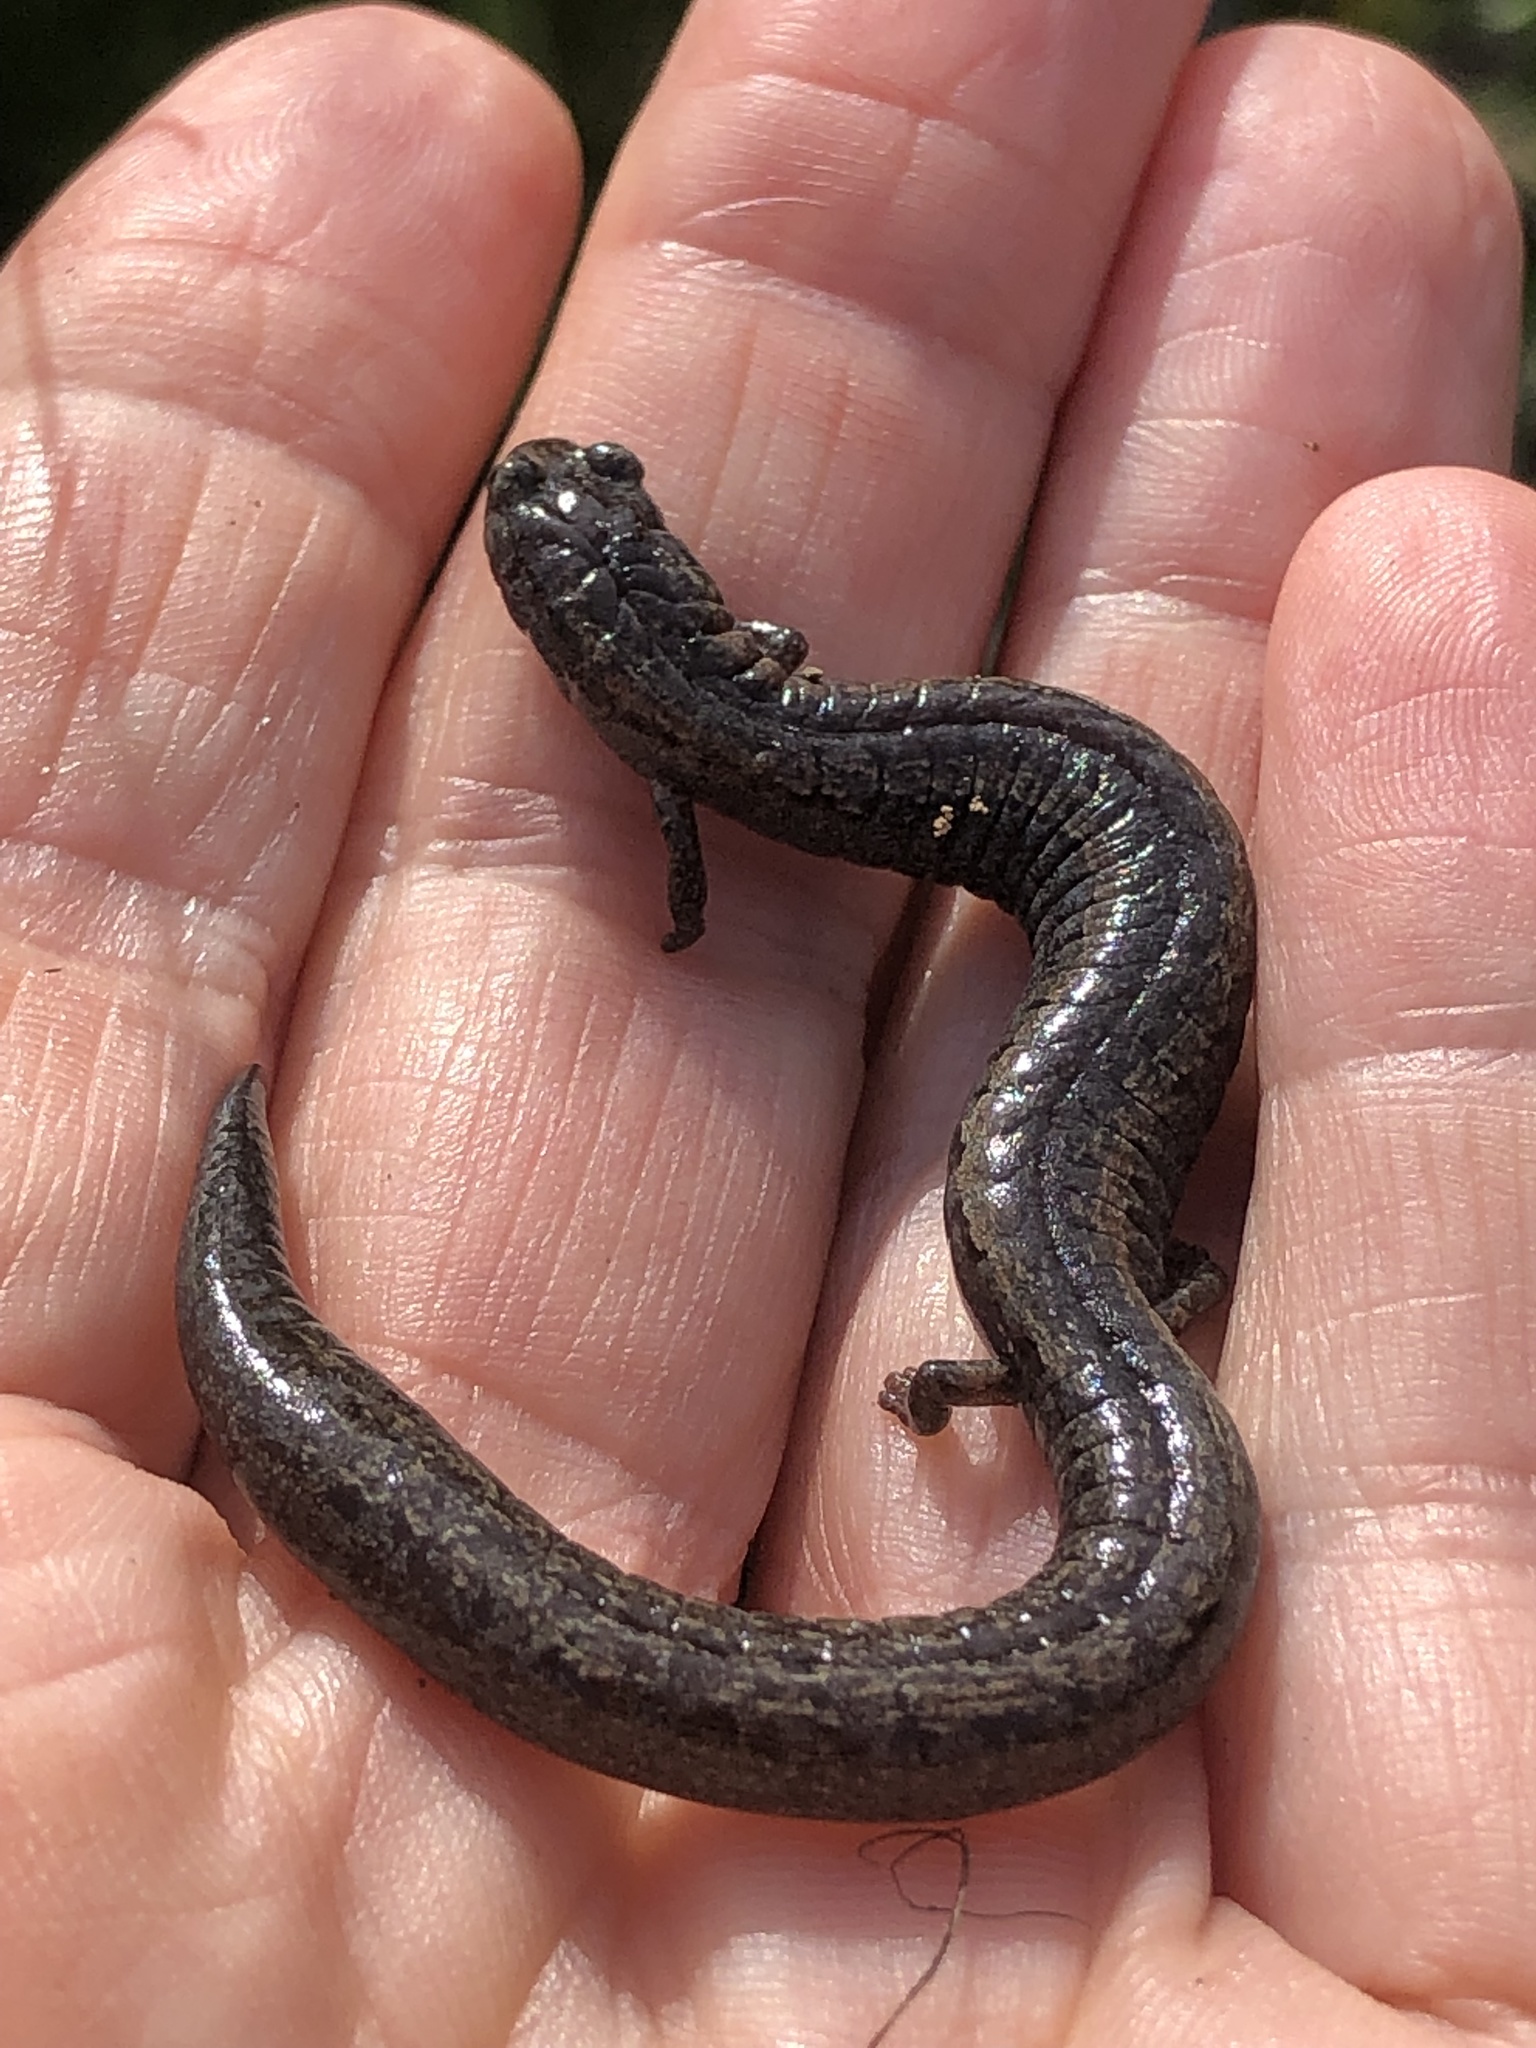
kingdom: Animalia
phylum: Chordata
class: Amphibia
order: Caudata
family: Plethodontidae
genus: Batrachoseps
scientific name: Batrachoseps attenuatus
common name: California slender salamander
